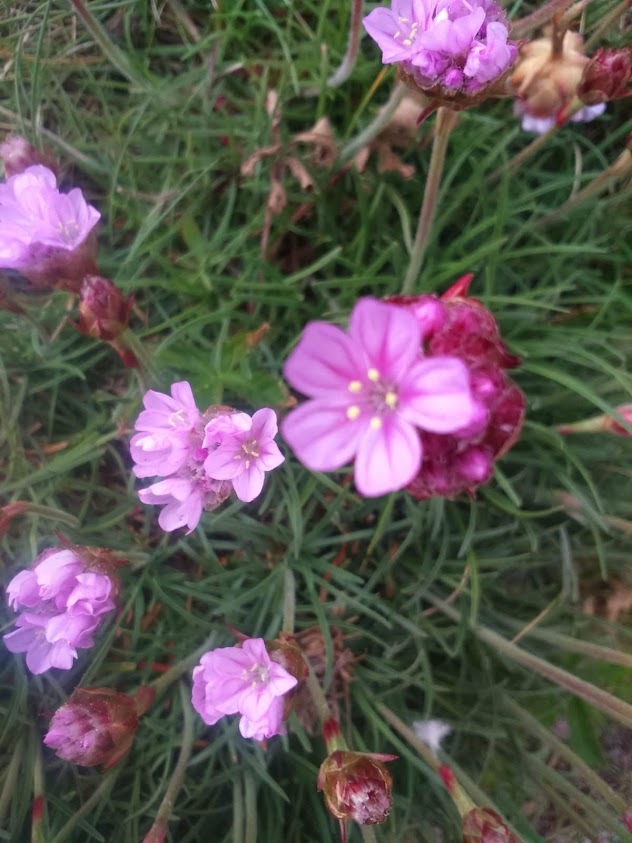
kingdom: Plantae
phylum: Tracheophyta
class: Magnoliopsida
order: Caryophyllales
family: Plumbaginaceae
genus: Armeria
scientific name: Armeria maritima
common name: Thrift
